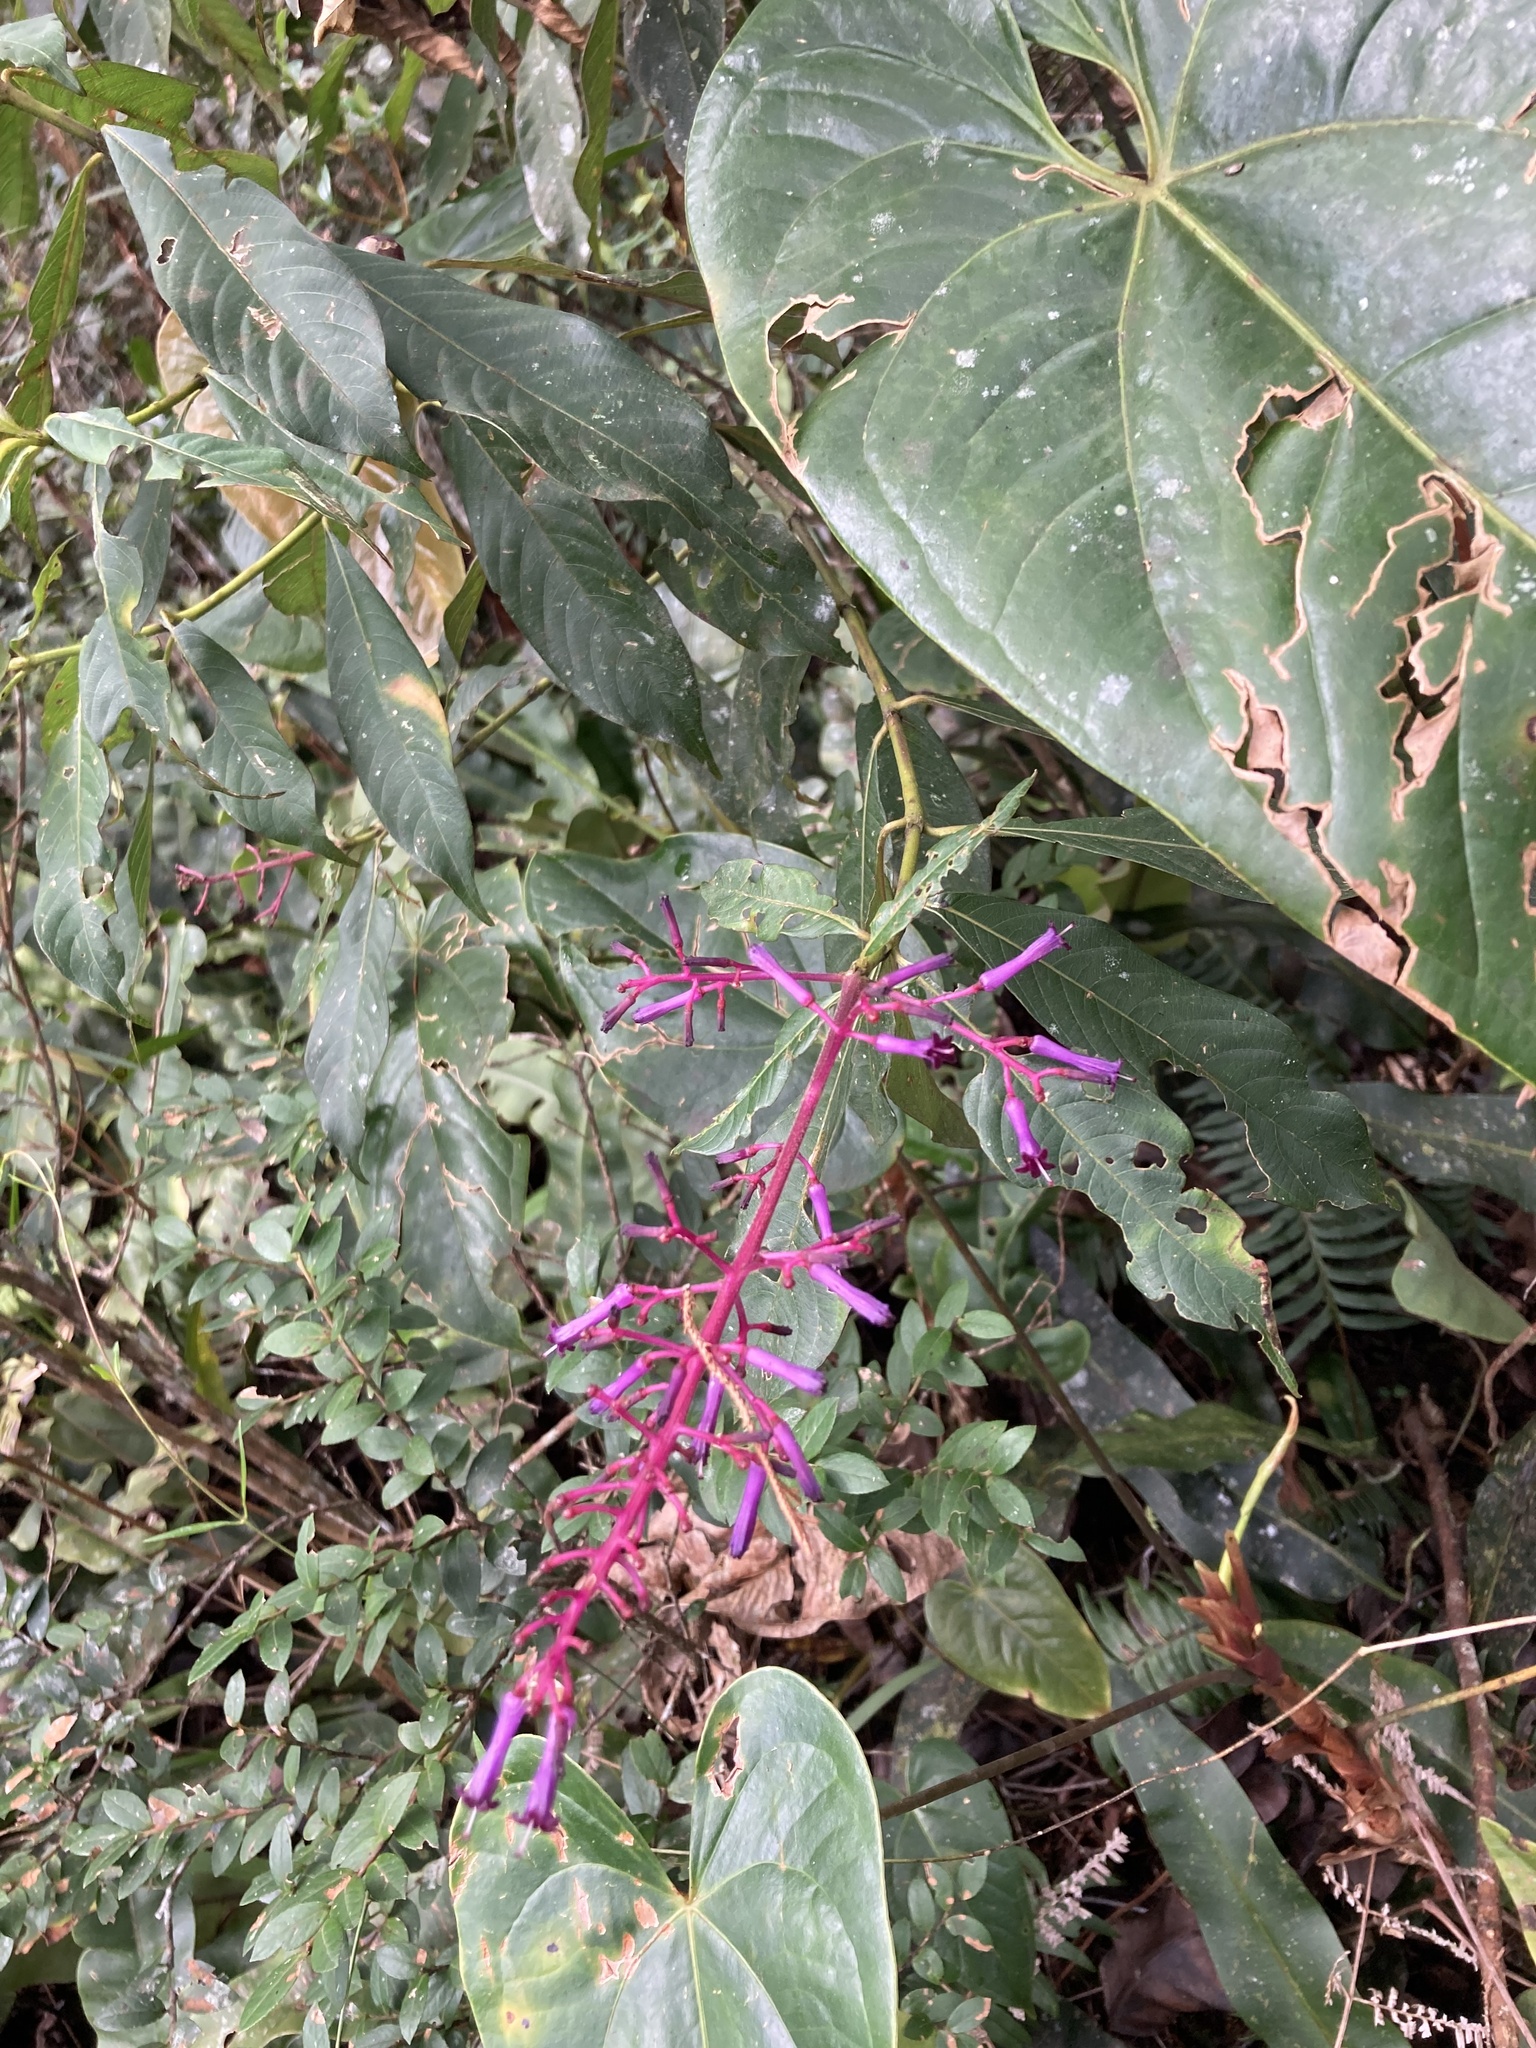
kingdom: Plantae
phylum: Tracheophyta
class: Magnoliopsida
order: Gentianales
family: Rubiaceae
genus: Palicourea
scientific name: Palicourea angustifolia
